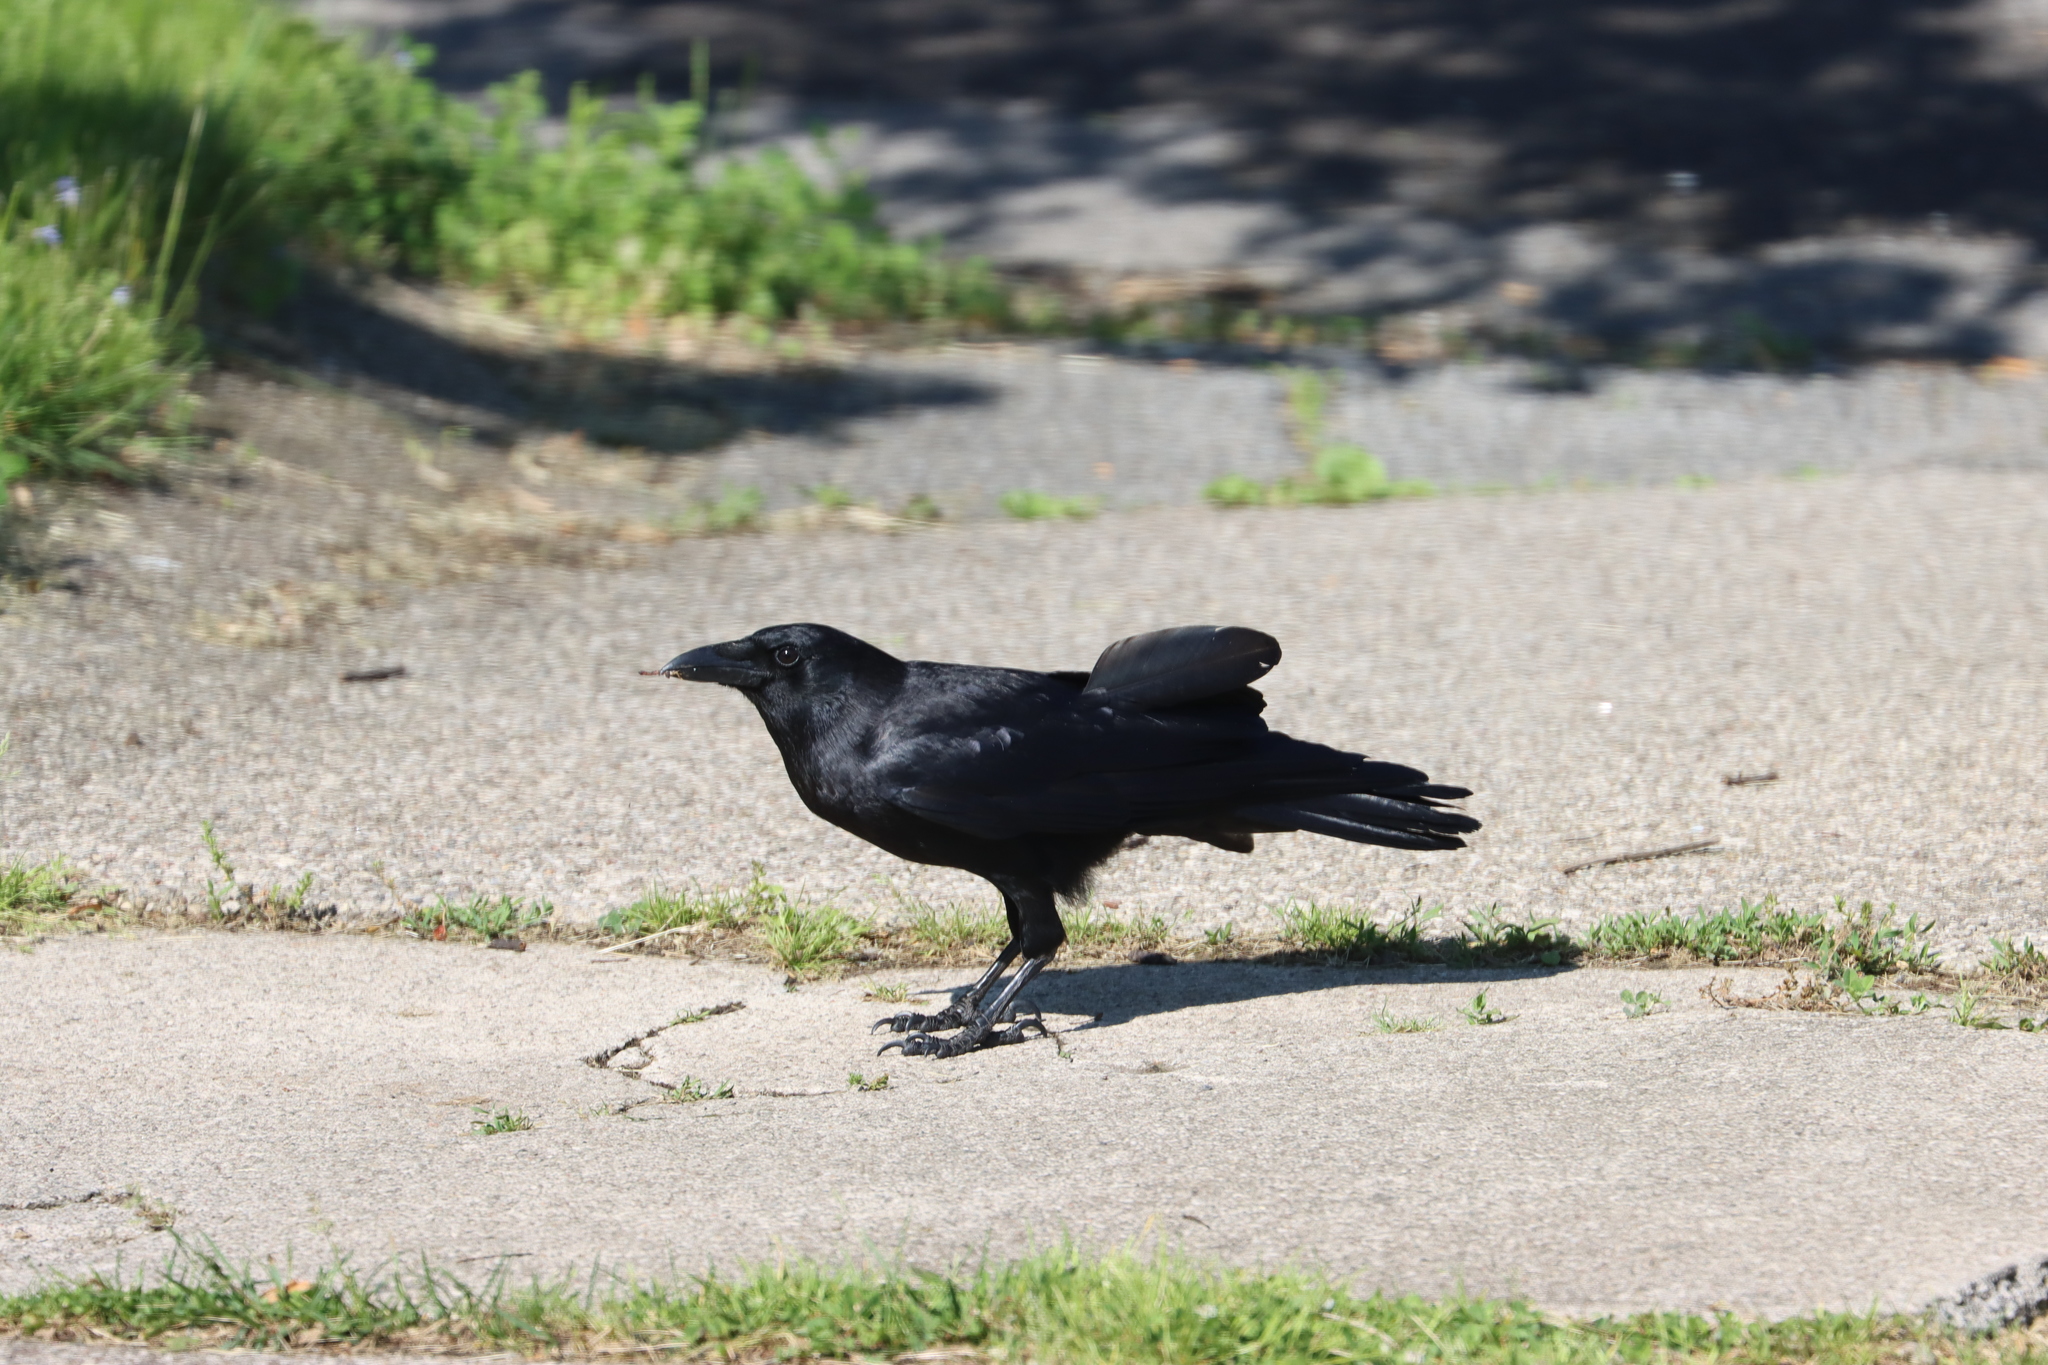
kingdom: Animalia
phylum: Chordata
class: Aves
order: Passeriformes
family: Corvidae
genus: Corvus
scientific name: Corvus brachyrhynchos
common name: American crow
